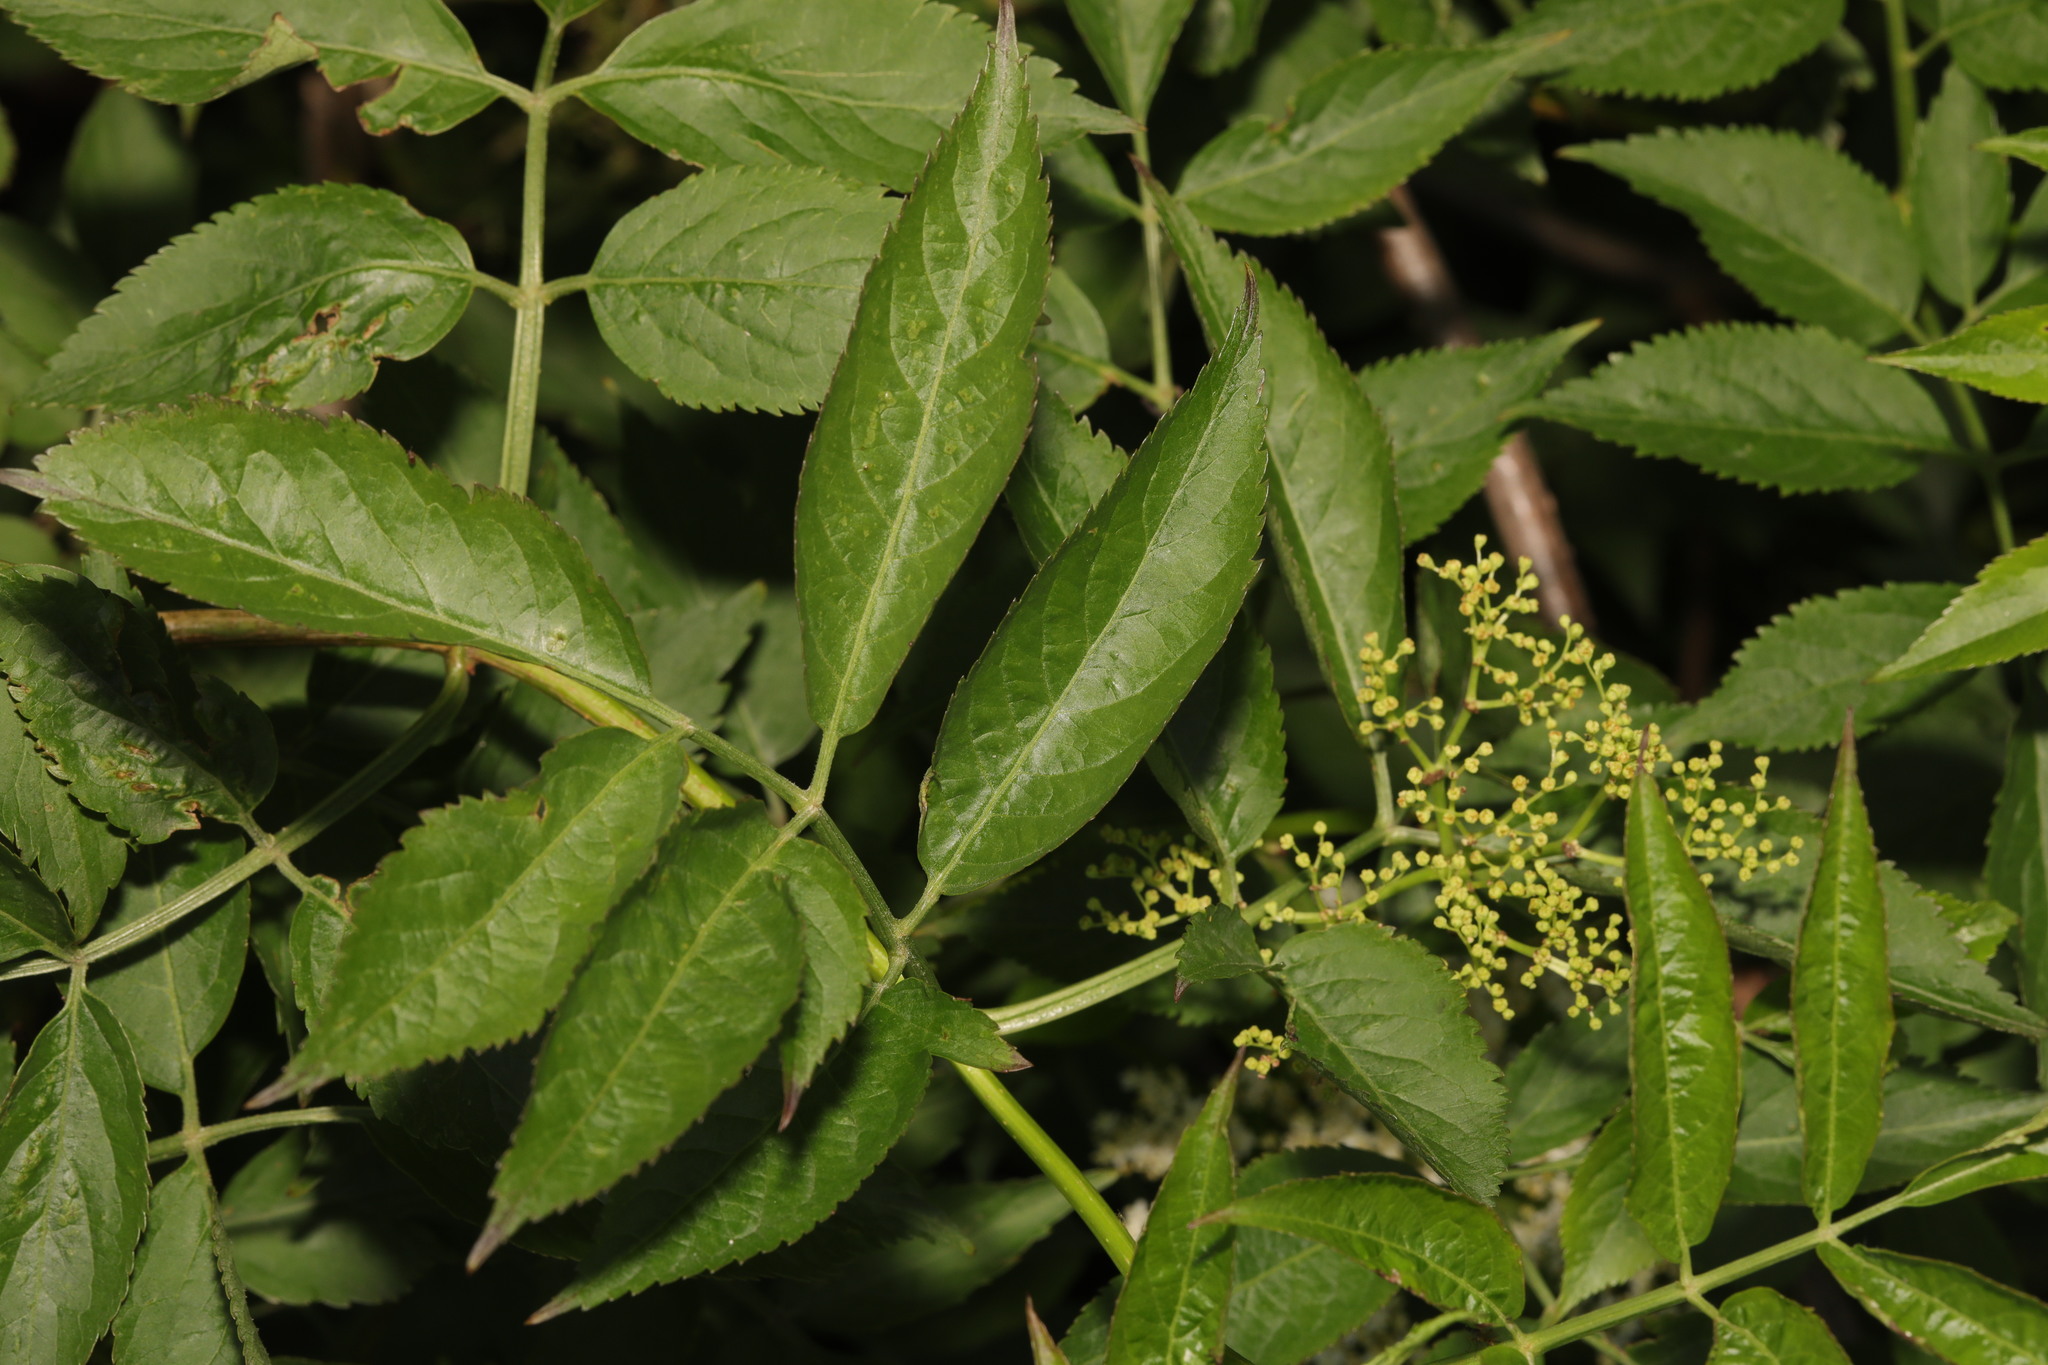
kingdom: Plantae
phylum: Tracheophyta
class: Magnoliopsida
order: Dipsacales
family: Viburnaceae
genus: Sambucus
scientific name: Sambucus nigra
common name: Elder
